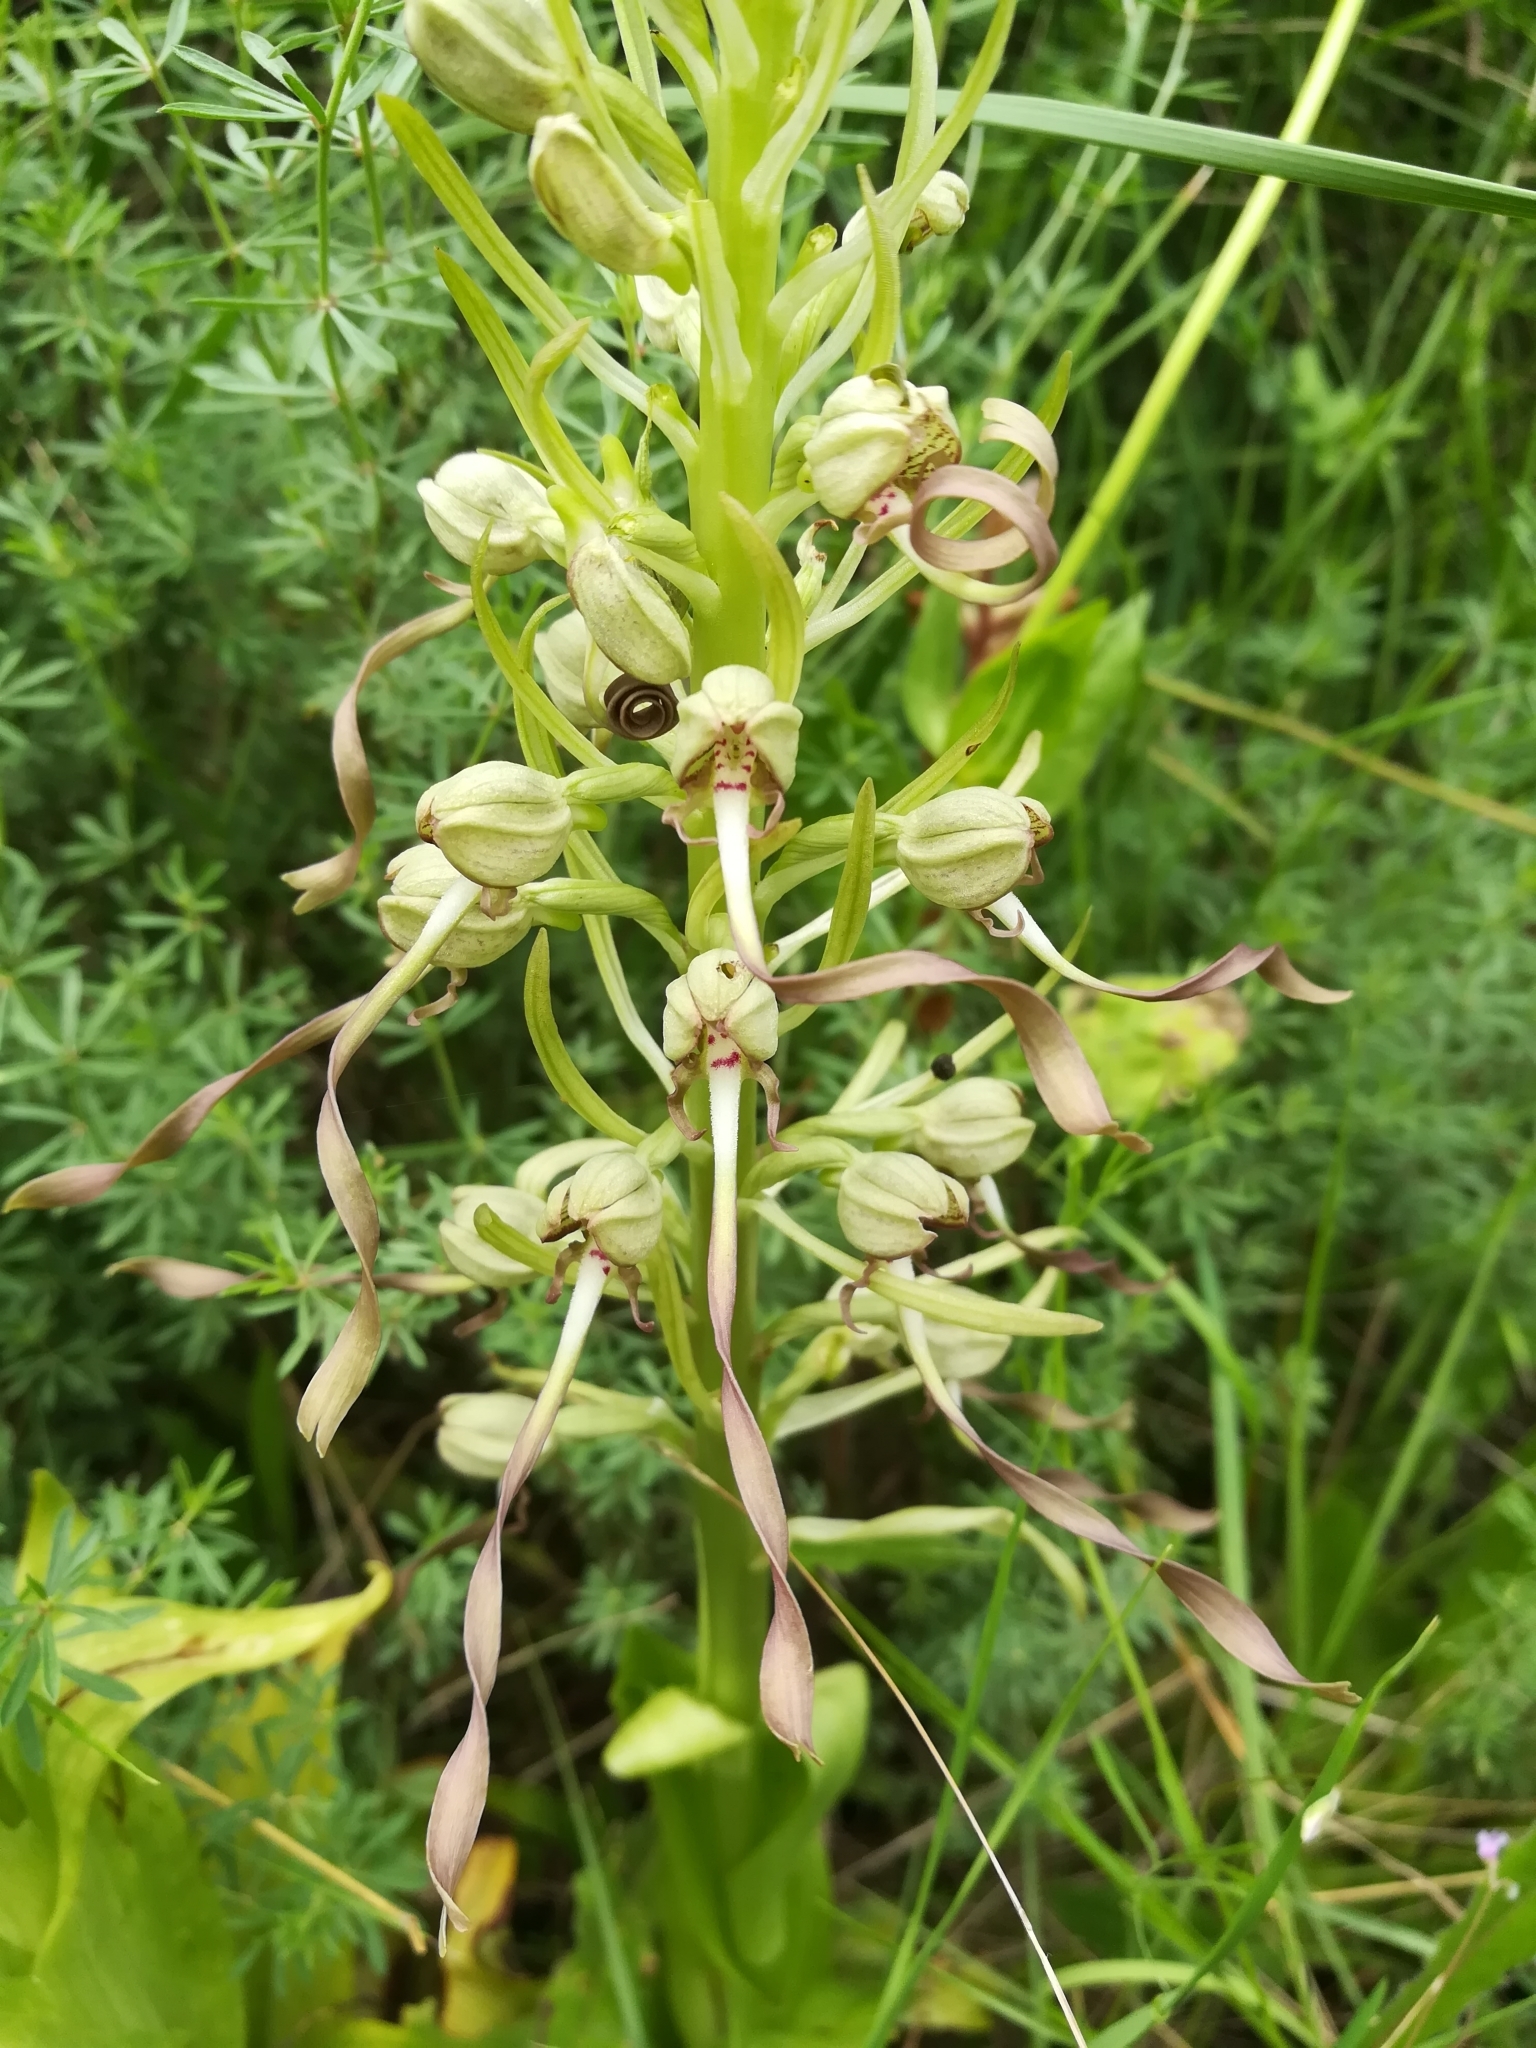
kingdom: Plantae
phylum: Tracheophyta
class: Liliopsida
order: Asparagales
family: Orchidaceae
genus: Himantoglossum
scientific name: Himantoglossum hircinum
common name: Lizard orchid
